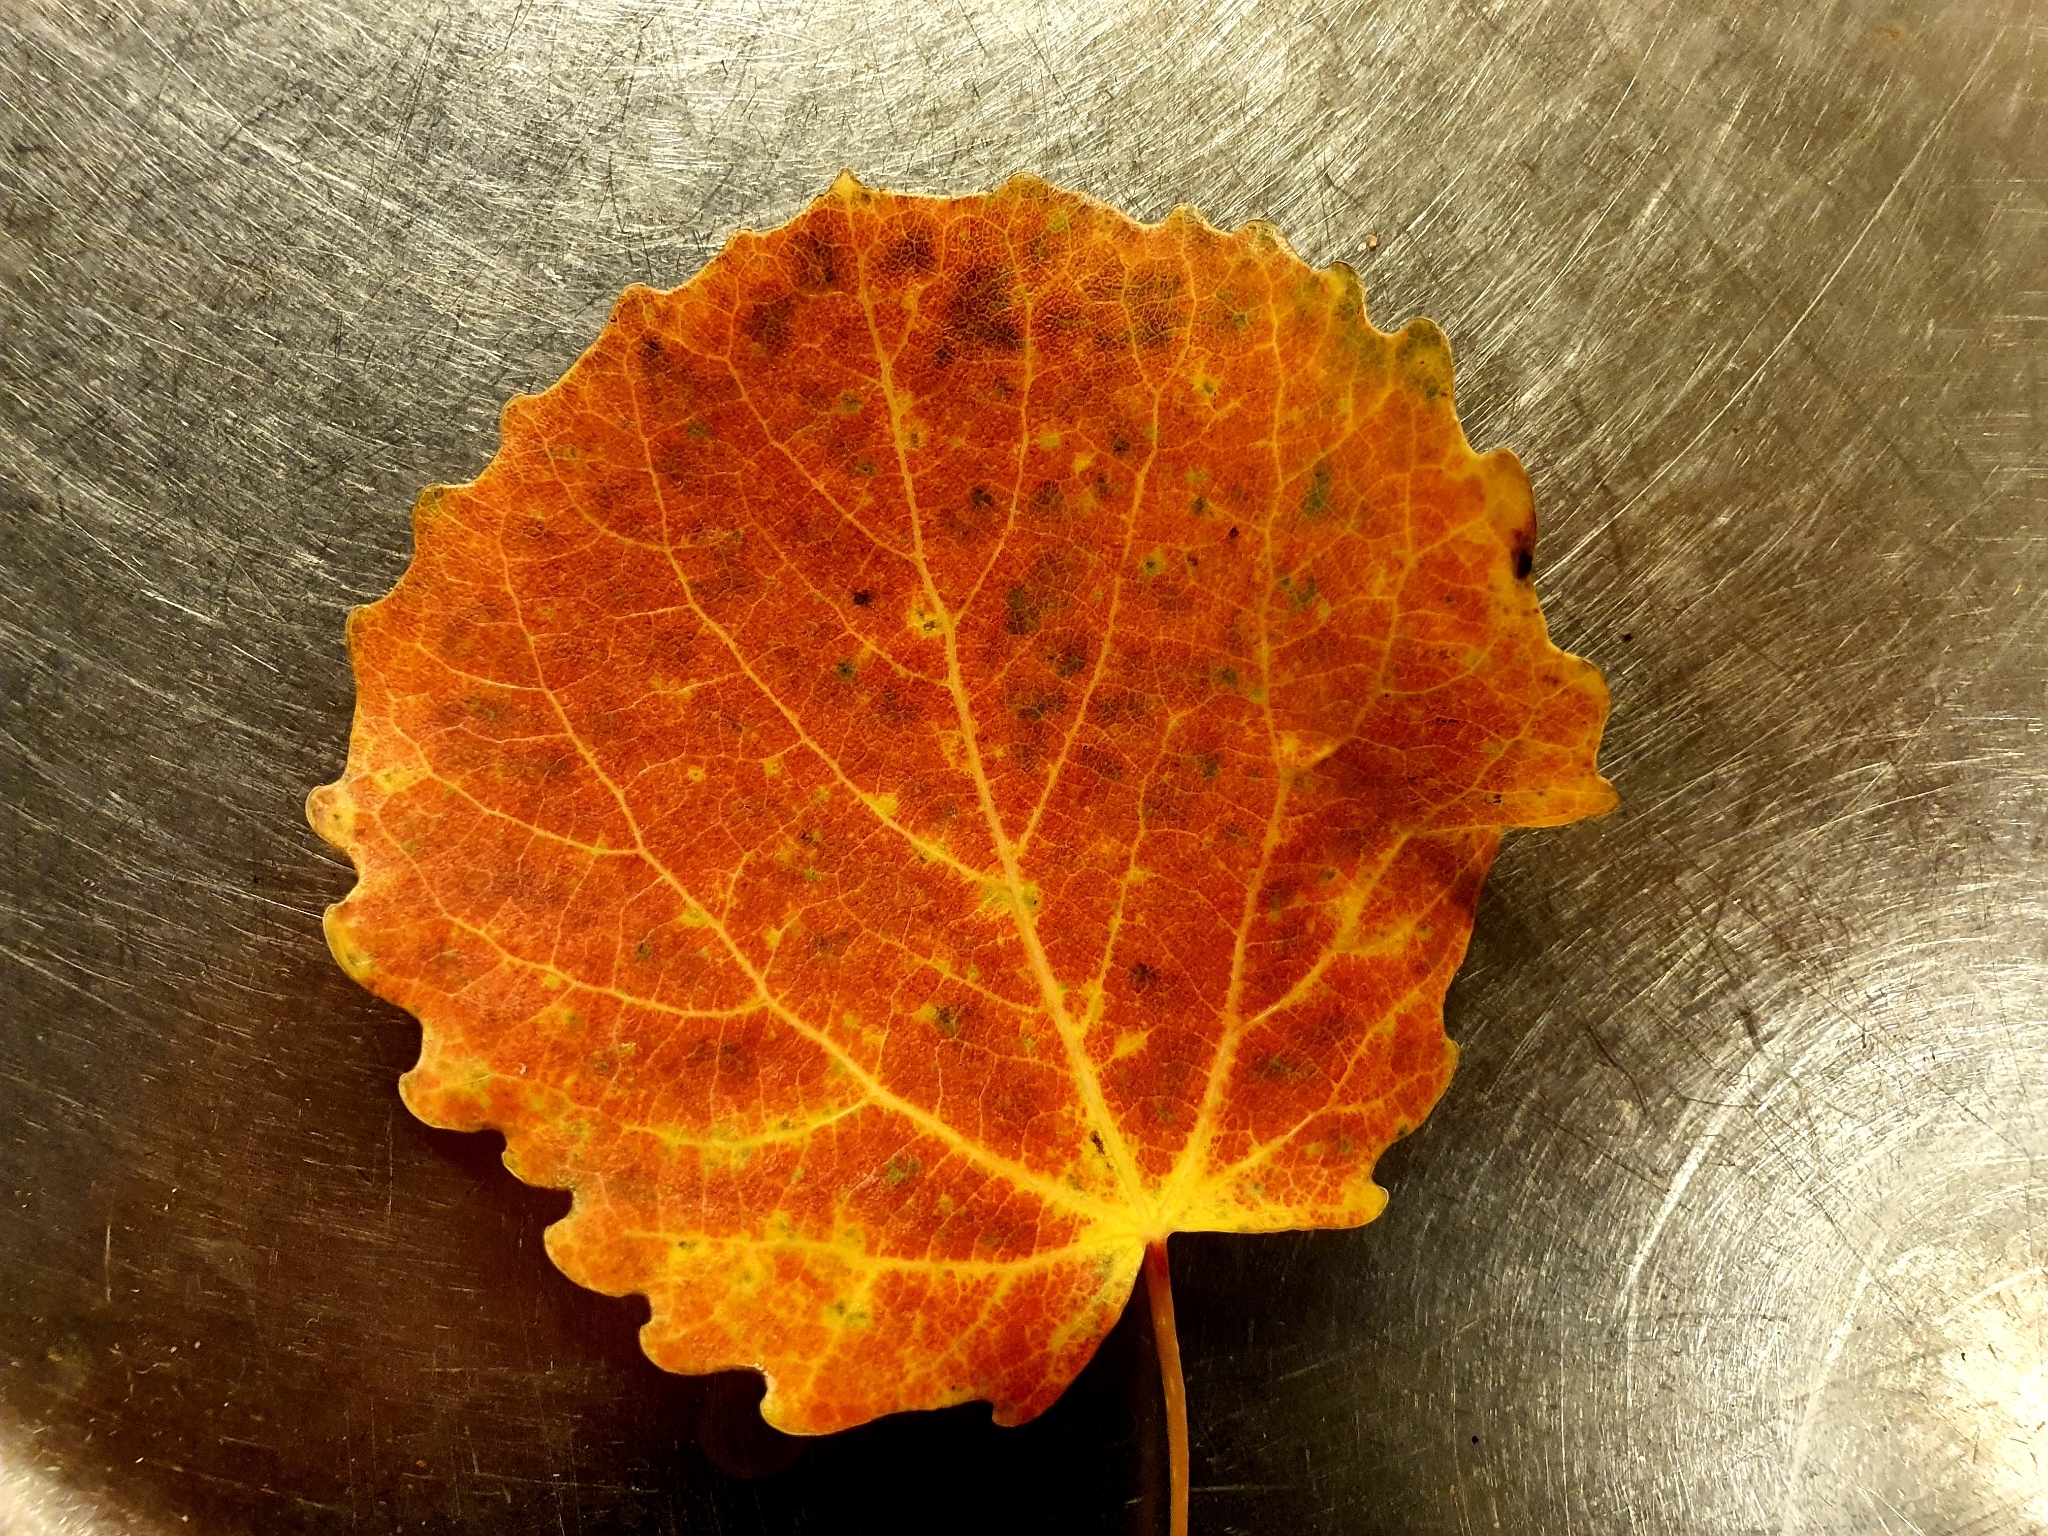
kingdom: Plantae
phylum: Tracheophyta
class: Magnoliopsida
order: Malpighiales
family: Salicaceae
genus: Populus
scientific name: Populus tremula
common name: European aspen
